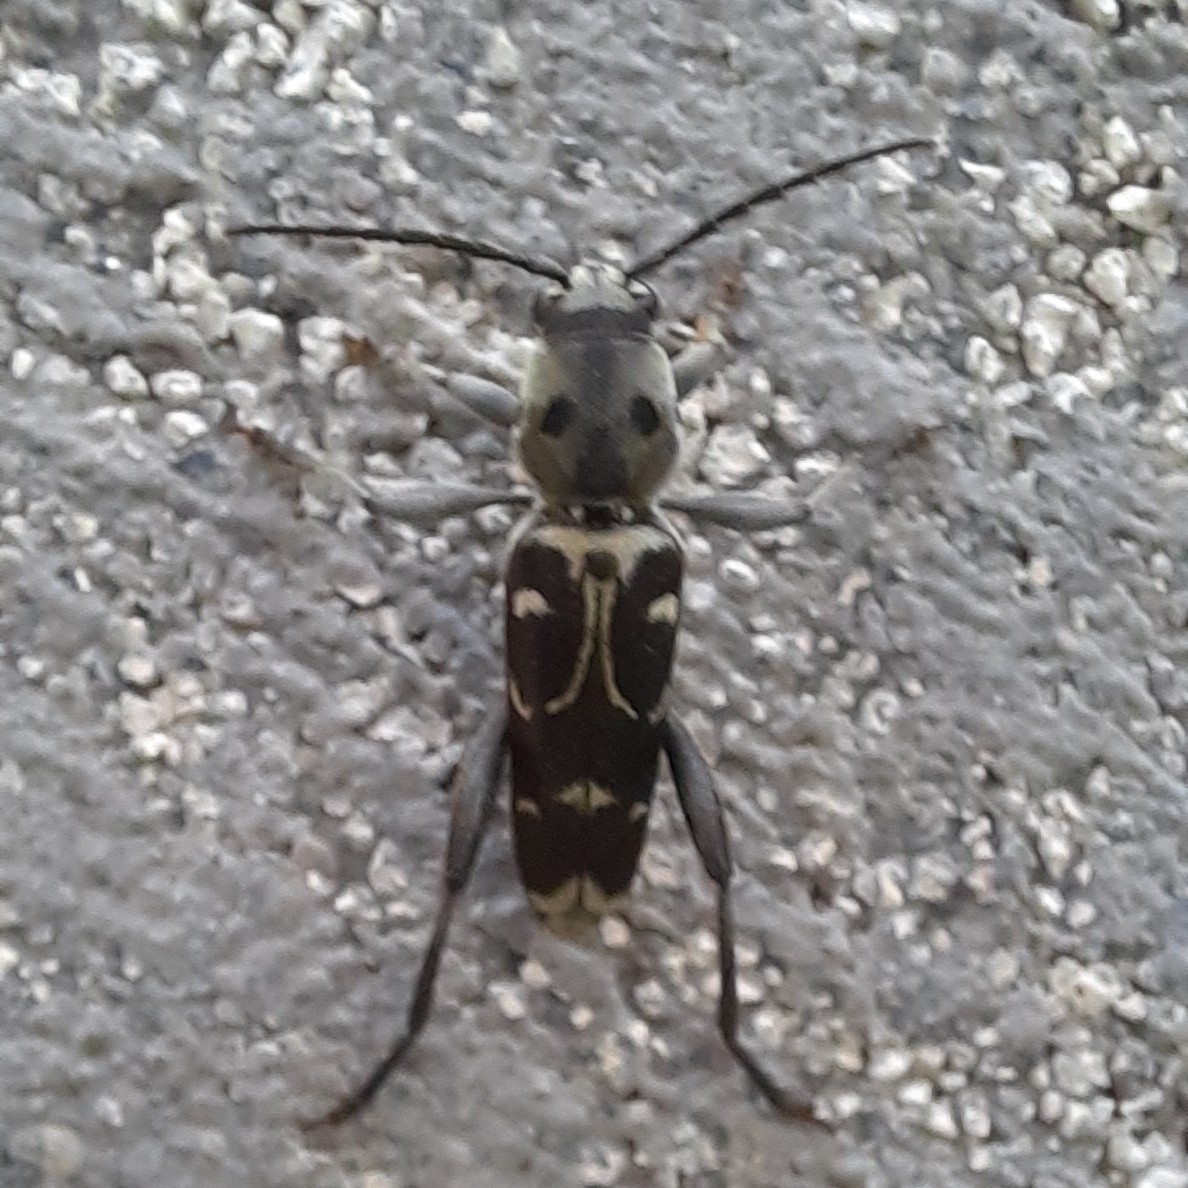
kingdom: Animalia
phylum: Arthropoda
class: Insecta
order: Coleoptera
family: Cerambycidae
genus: Xylotrechus
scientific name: Xylotrechus smei
